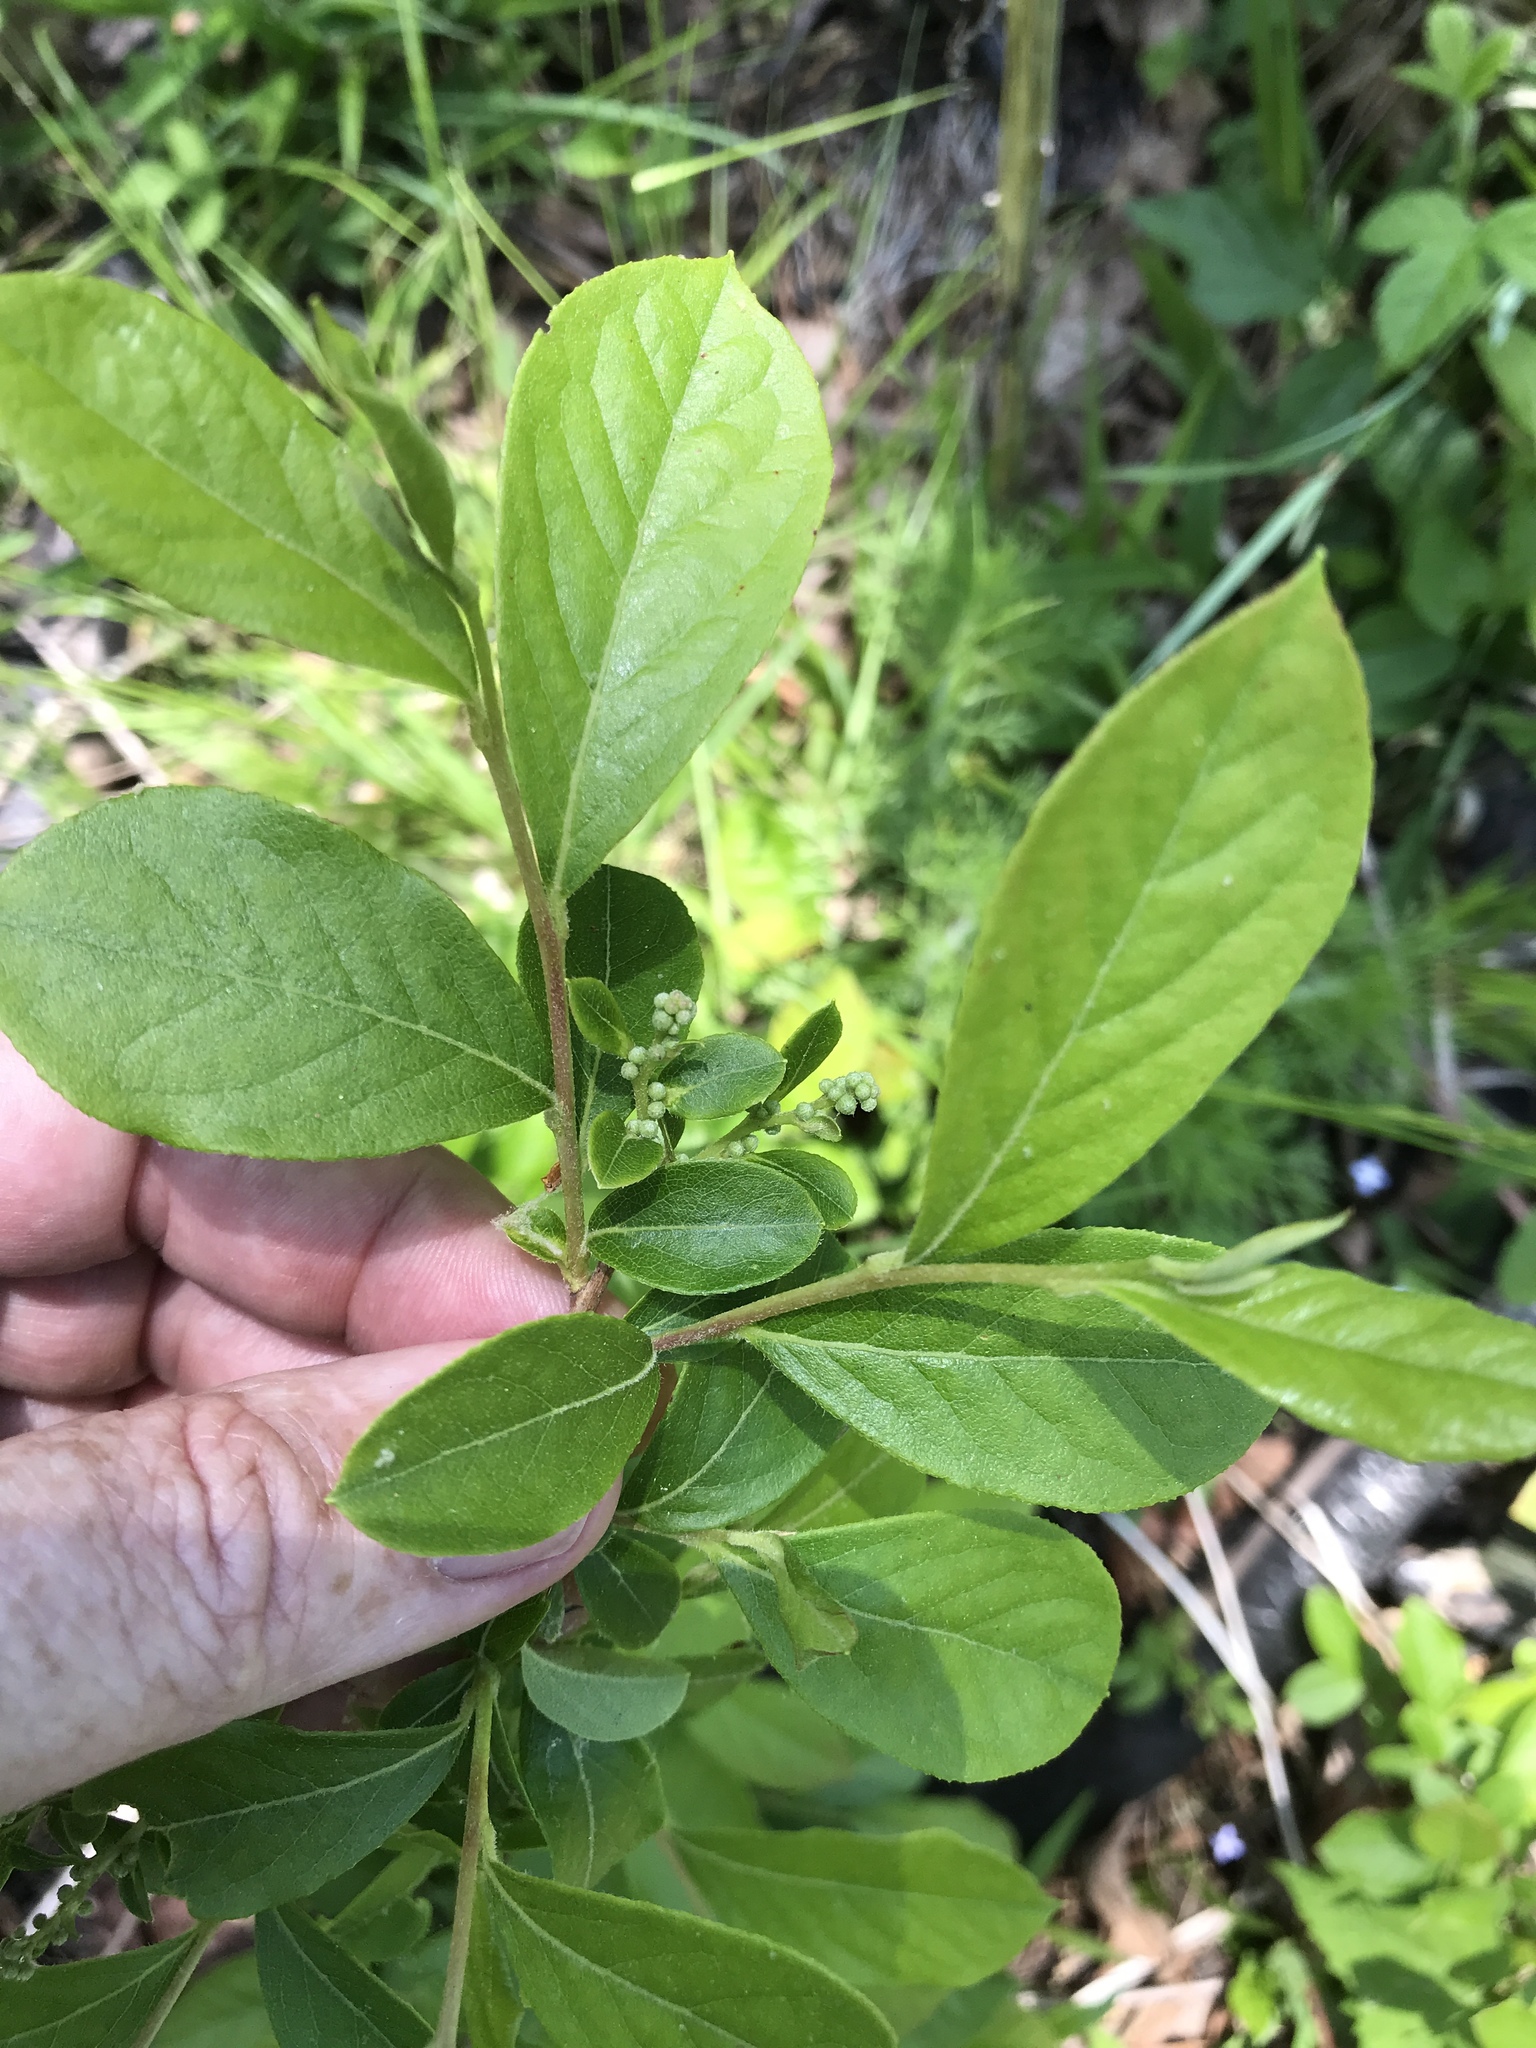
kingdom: Plantae
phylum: Tracheophyta
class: Magnoliopsida
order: Ericales
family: Ericaceae
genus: Lyonia
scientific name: Lyonia ligustrina
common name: Maleberry
